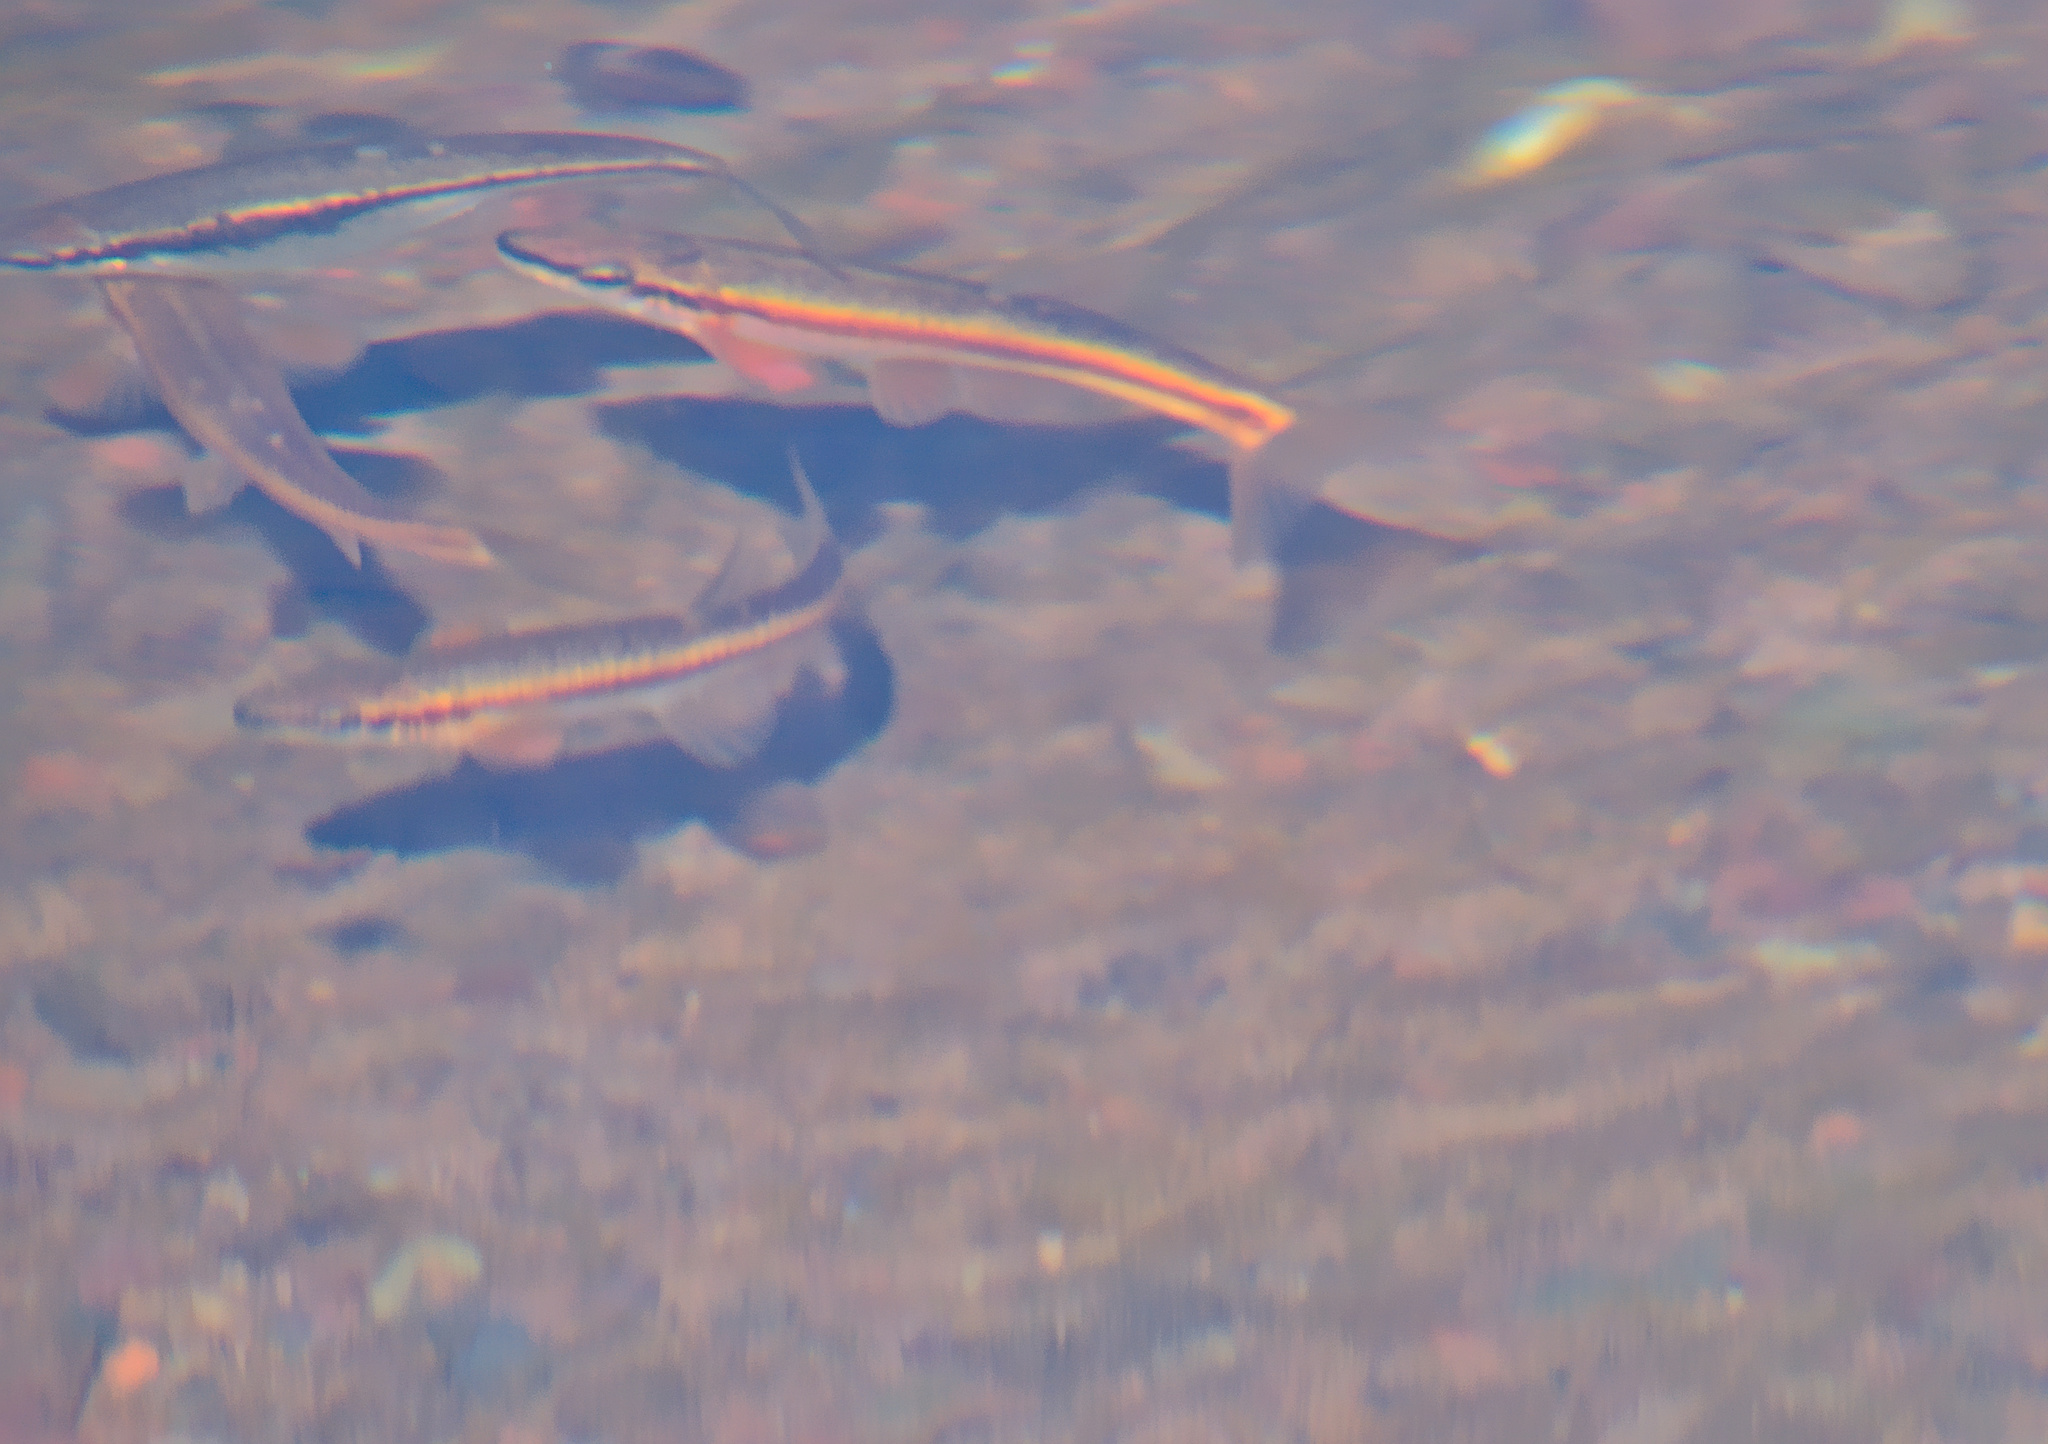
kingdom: Animalia
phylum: Chordata
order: Cypriniformes
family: Cyprinidae
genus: Rhinichthys
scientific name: Rhinichthys atratulus
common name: Eastern blacknose dace
